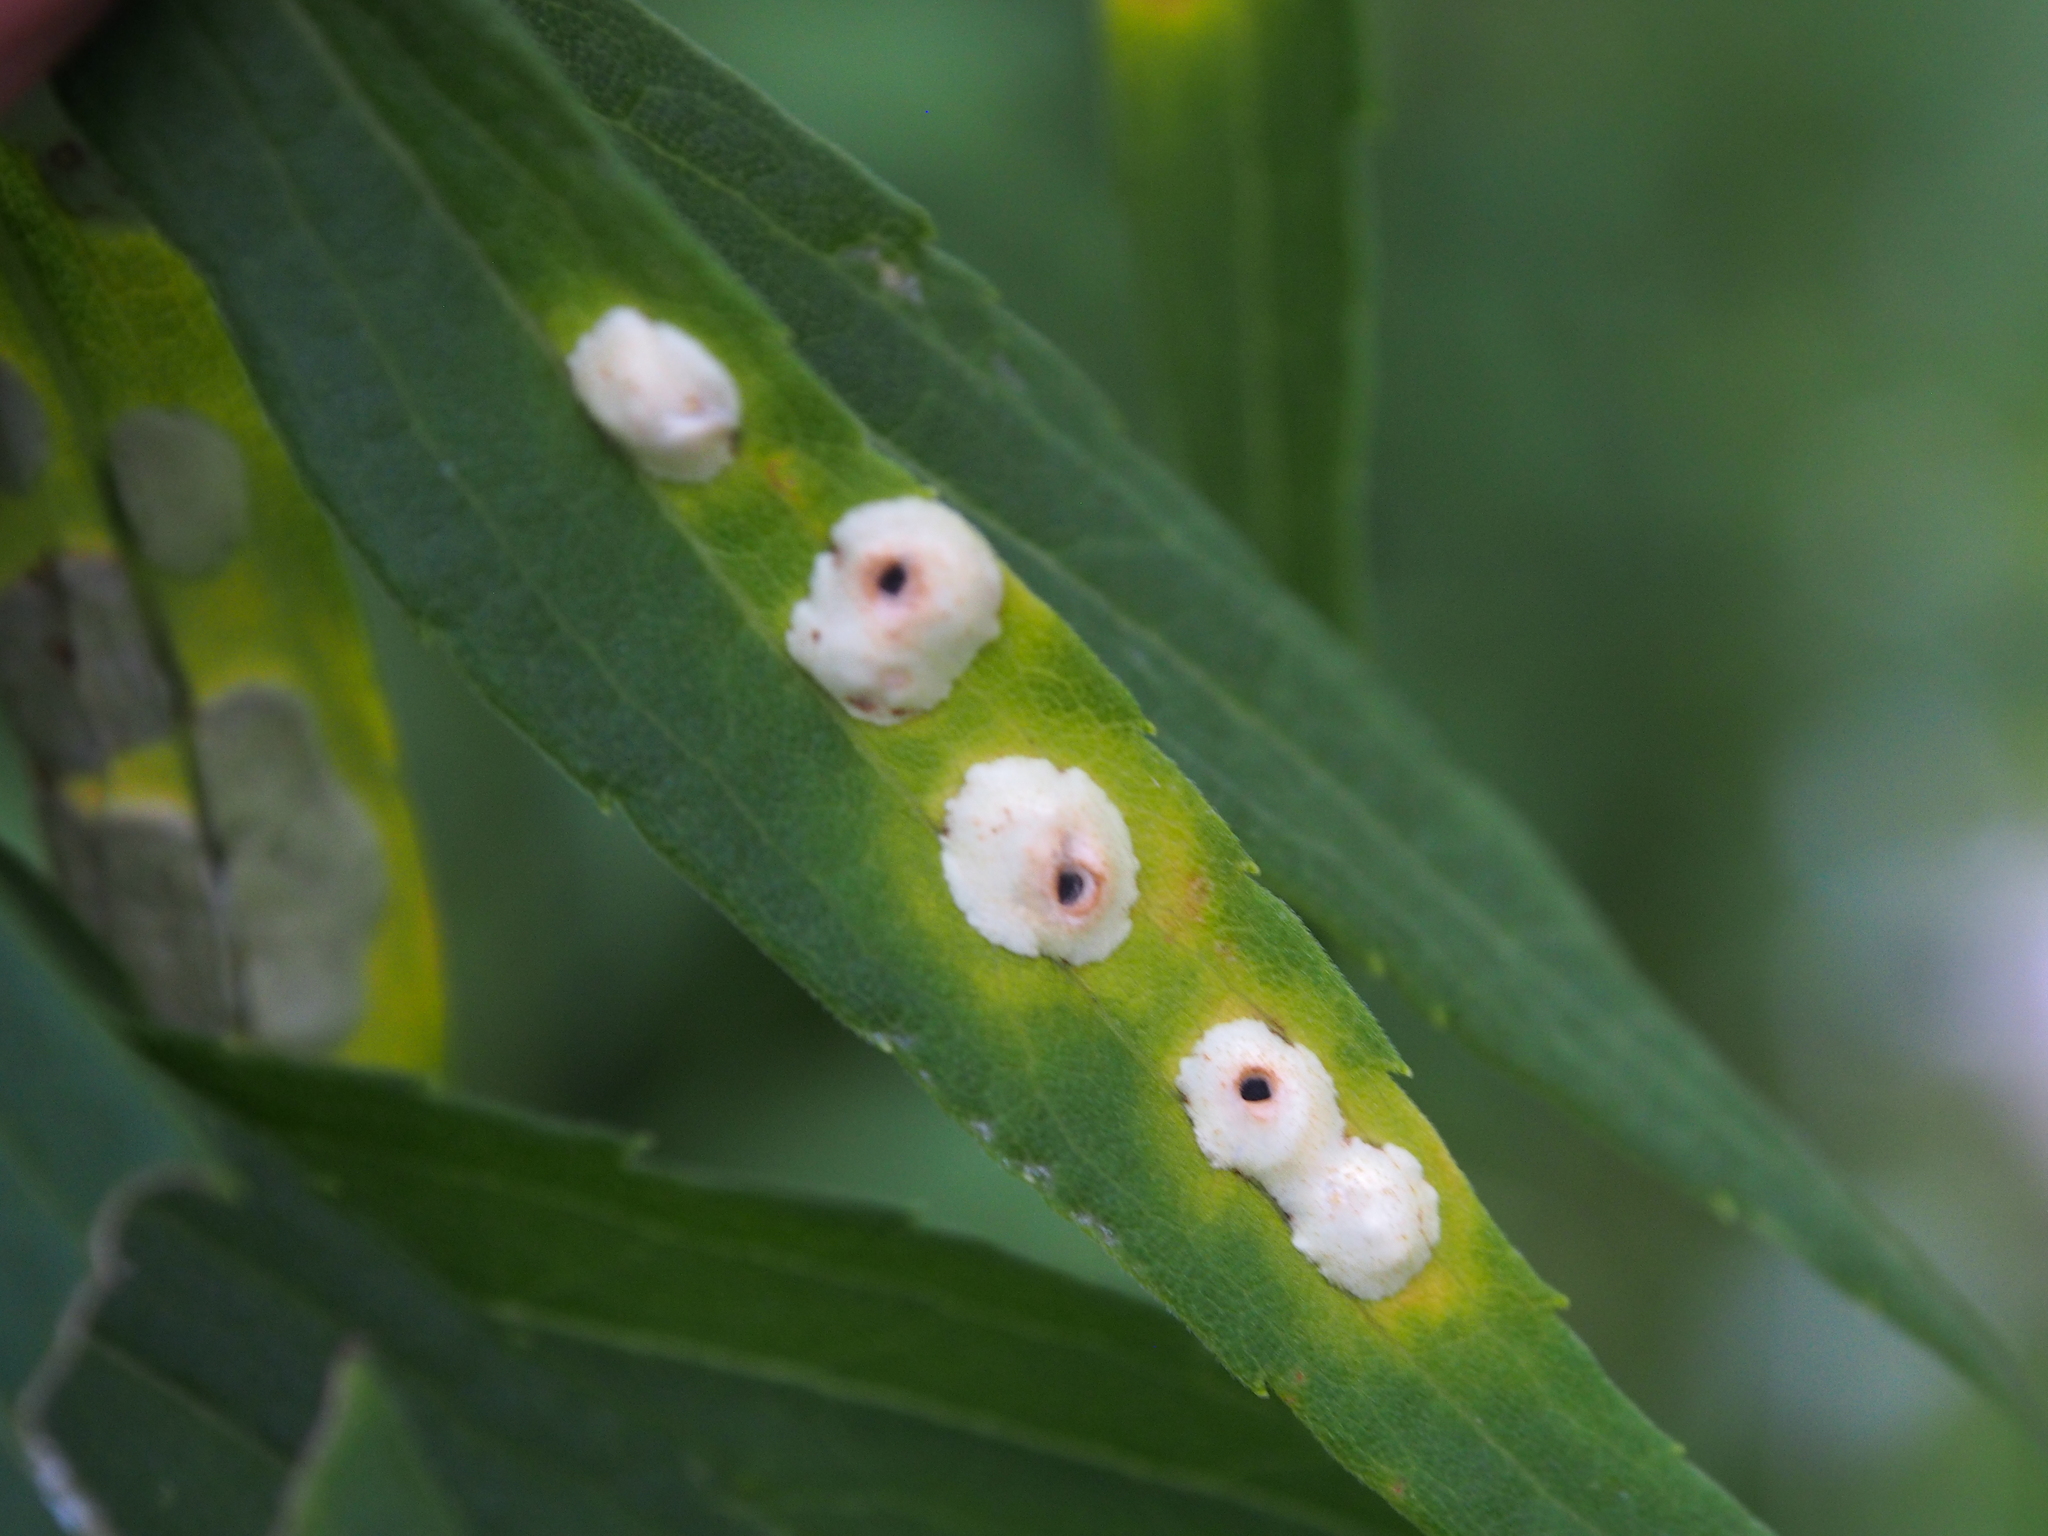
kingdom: Animalia
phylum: Arthropoda
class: Insecta
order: Diptera
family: Cecidomyiidae
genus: Asteromyia
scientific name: Asteromyia carbonifera
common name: Carbonifera goldenrod gall midge
